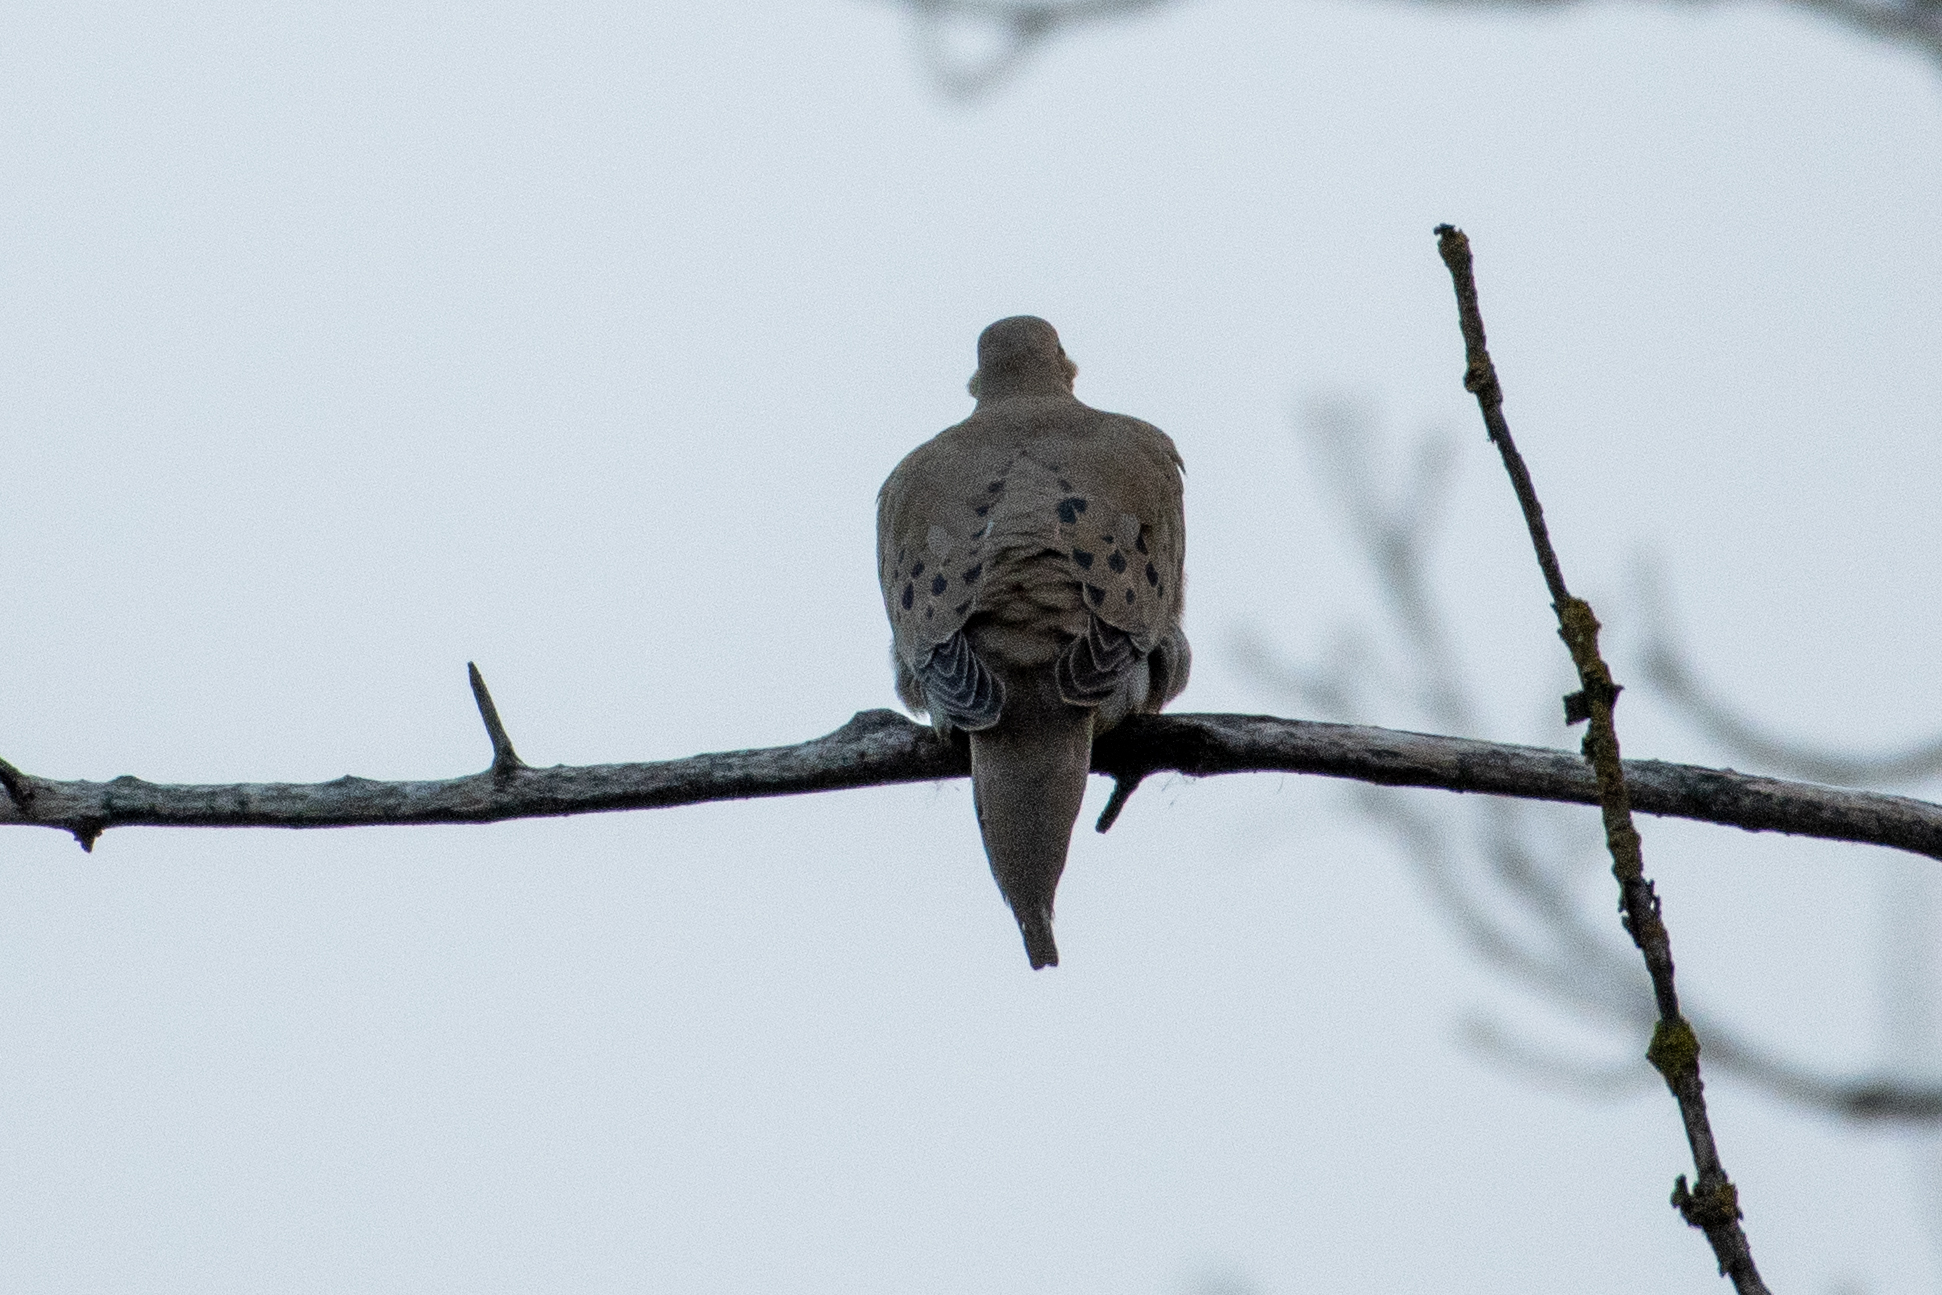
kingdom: Animalia
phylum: Chordata
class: Aves
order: Columbiformes
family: Columbidae
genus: Zenaida
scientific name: Zenaida macroura
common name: Mourning dove
